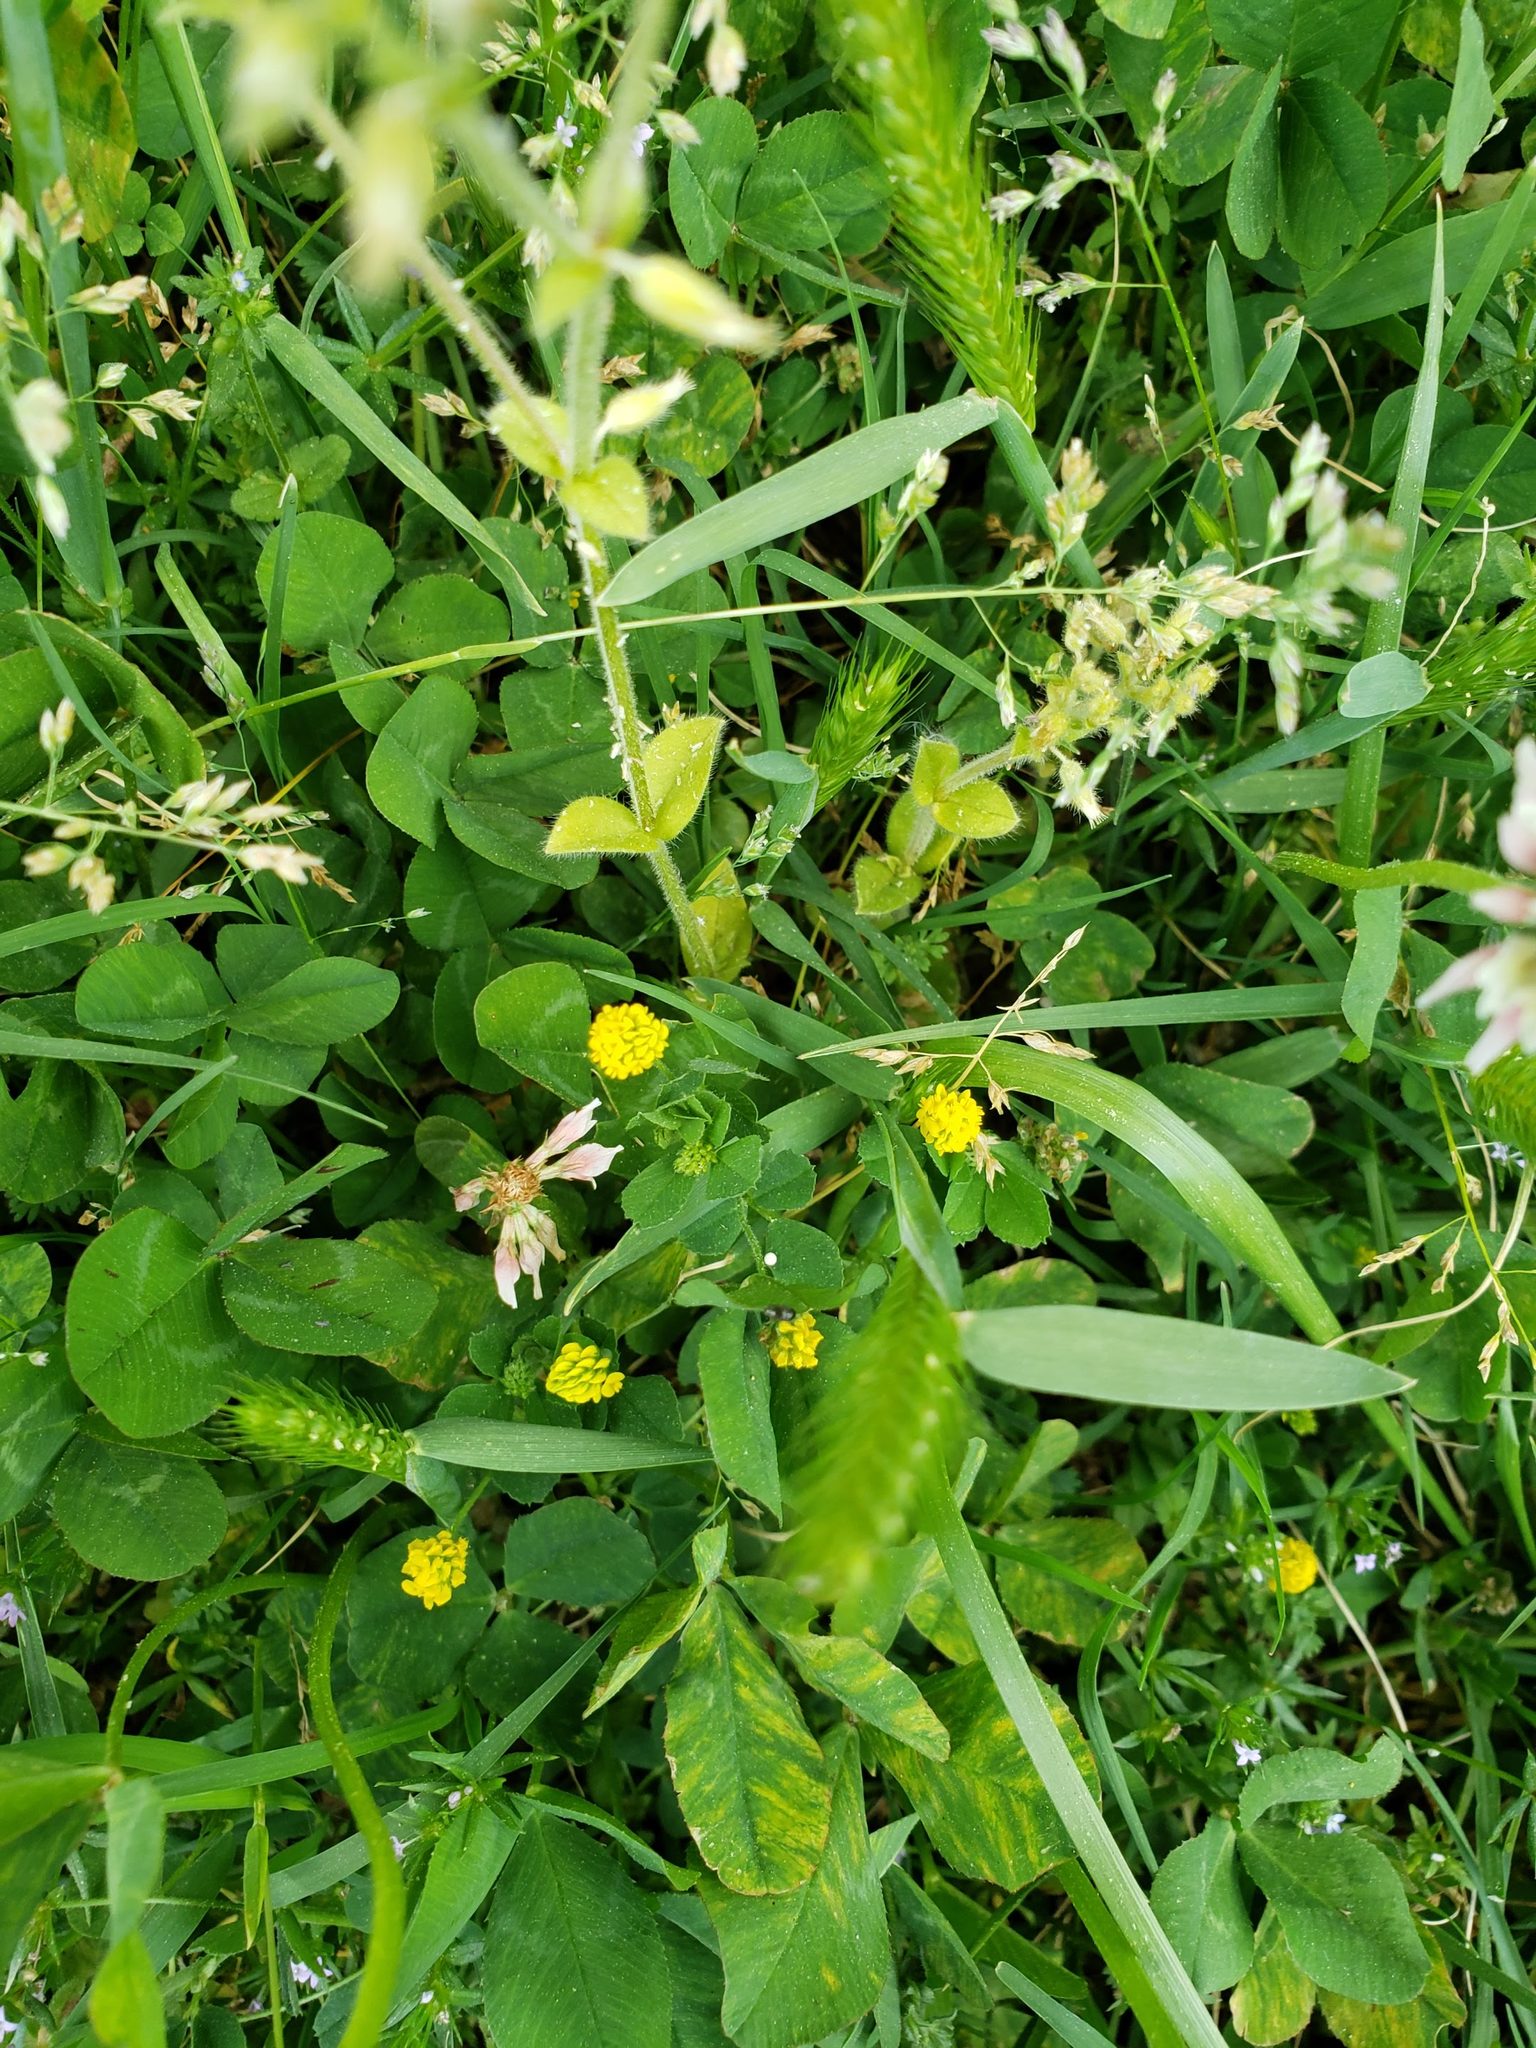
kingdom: Plantae
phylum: Tracheophyta
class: Magnoliopsida
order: Fabales
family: Fabaceae
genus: Medicago
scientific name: Medicago lupulina
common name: Black medick
